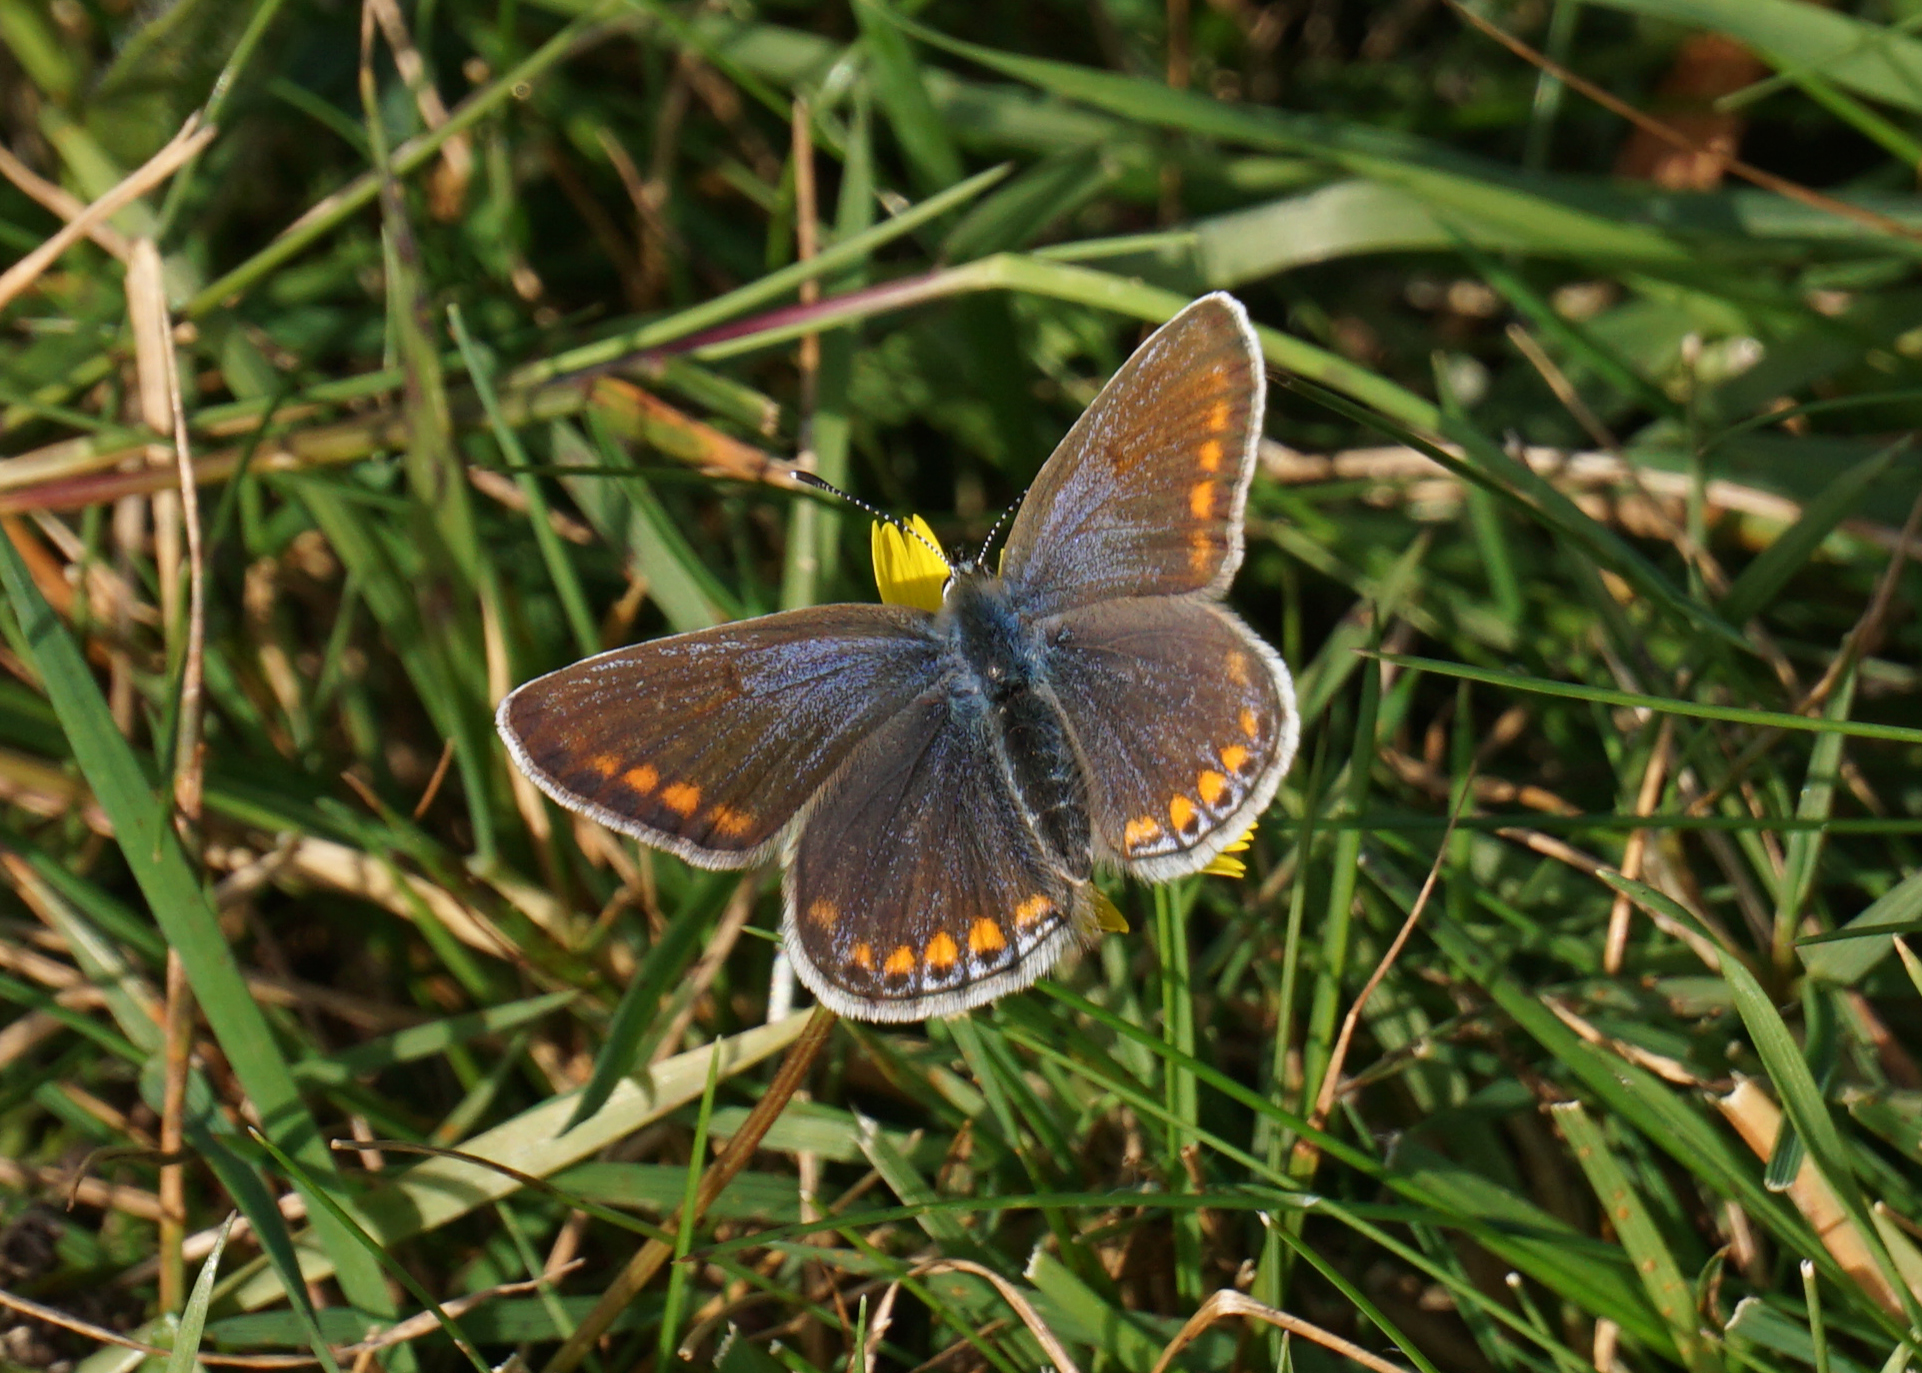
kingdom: Animalia
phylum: Arthropoda
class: Insecta
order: Lepidoptera
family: Lycaenidae
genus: Polyommatus
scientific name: Polyommatus icarus
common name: Common blue
